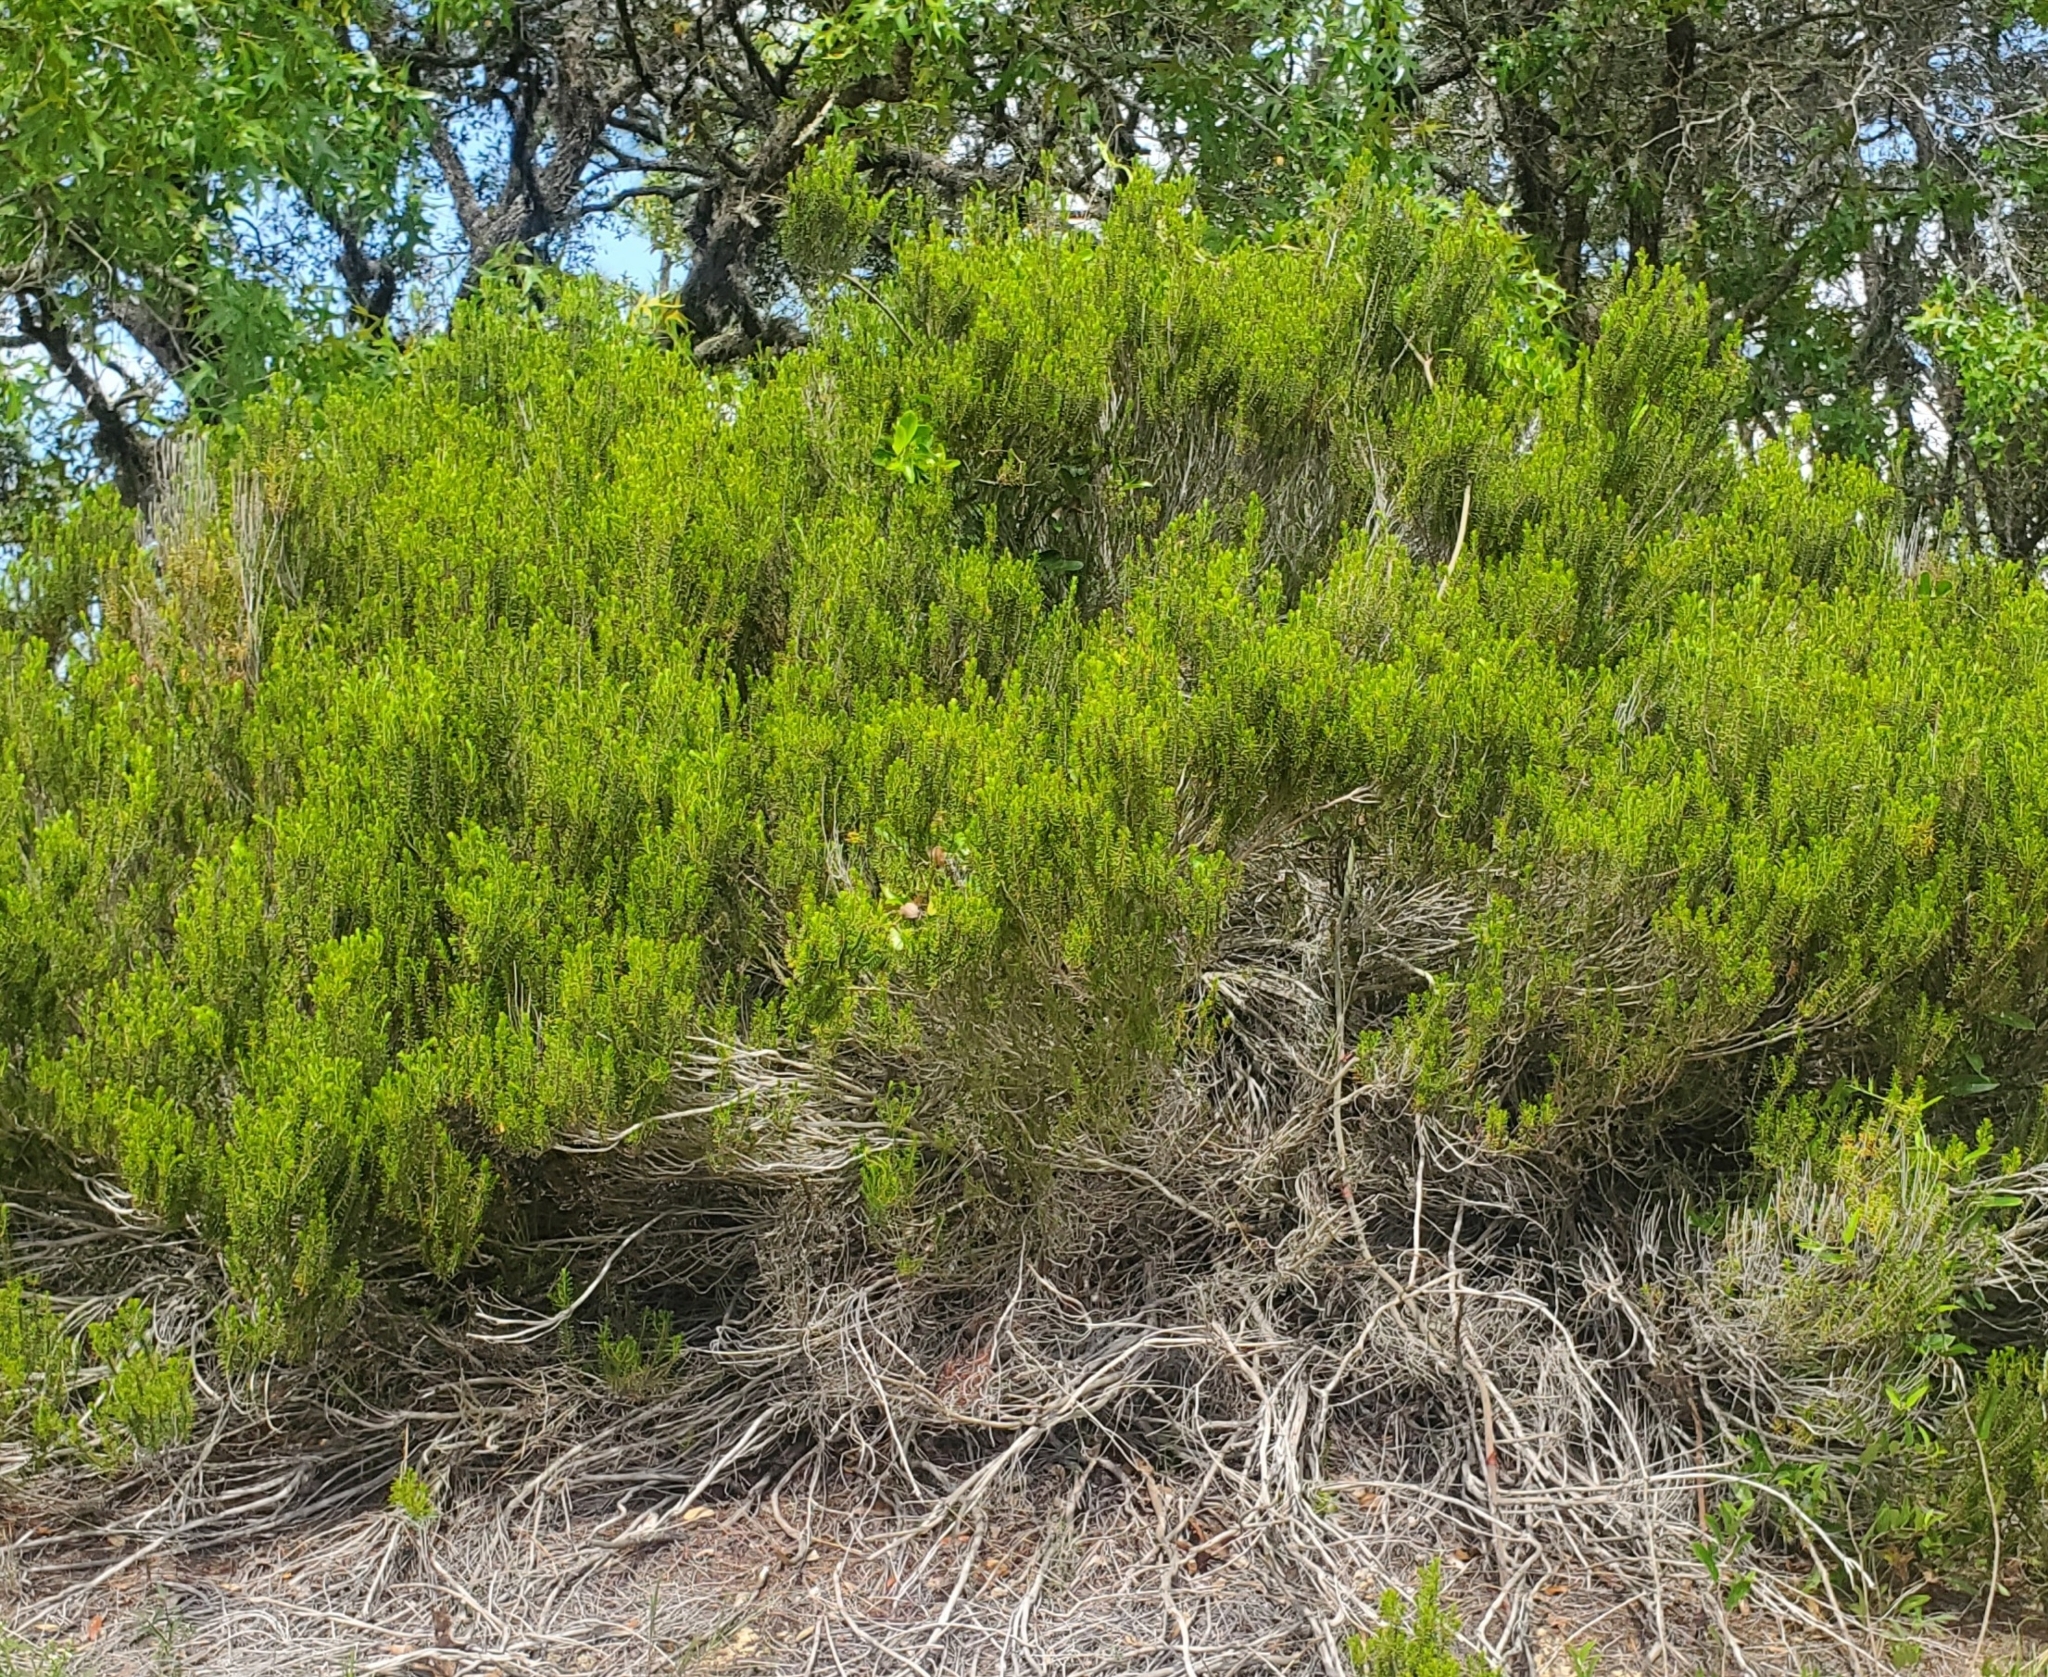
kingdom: Plantae
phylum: Tracheophyta
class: Magnoliopsida
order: Ericales
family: Ericaceae
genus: Ceratiola
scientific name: Ceratiola ericoides
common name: Sandhill-rosemary
